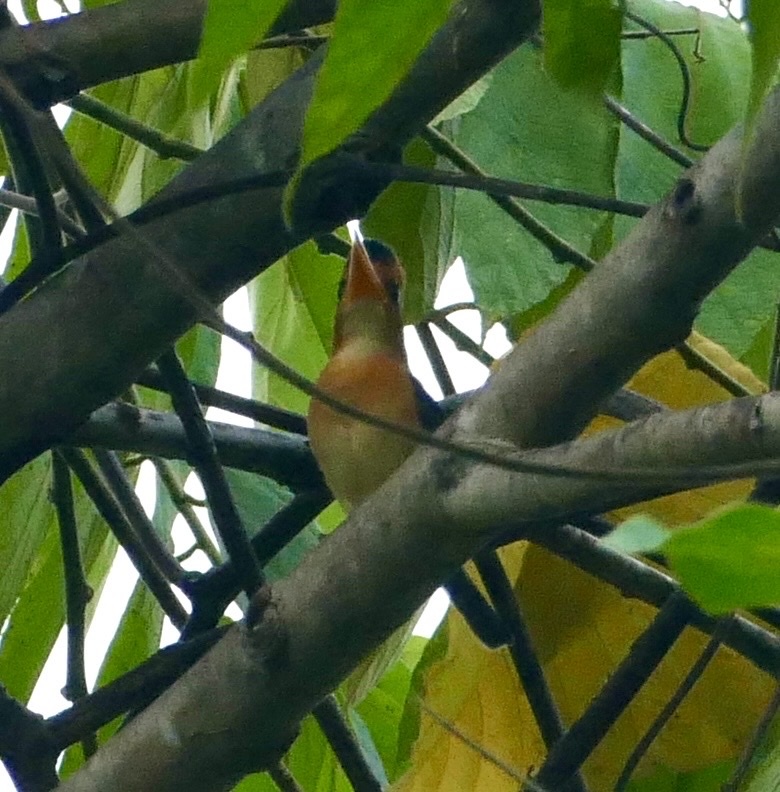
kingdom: Animalia
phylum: Chordata
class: Aves
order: Coraciiformes
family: Alcedinidae
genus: Syma
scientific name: Syma torotoro
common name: Yellow-billed kingfisher
